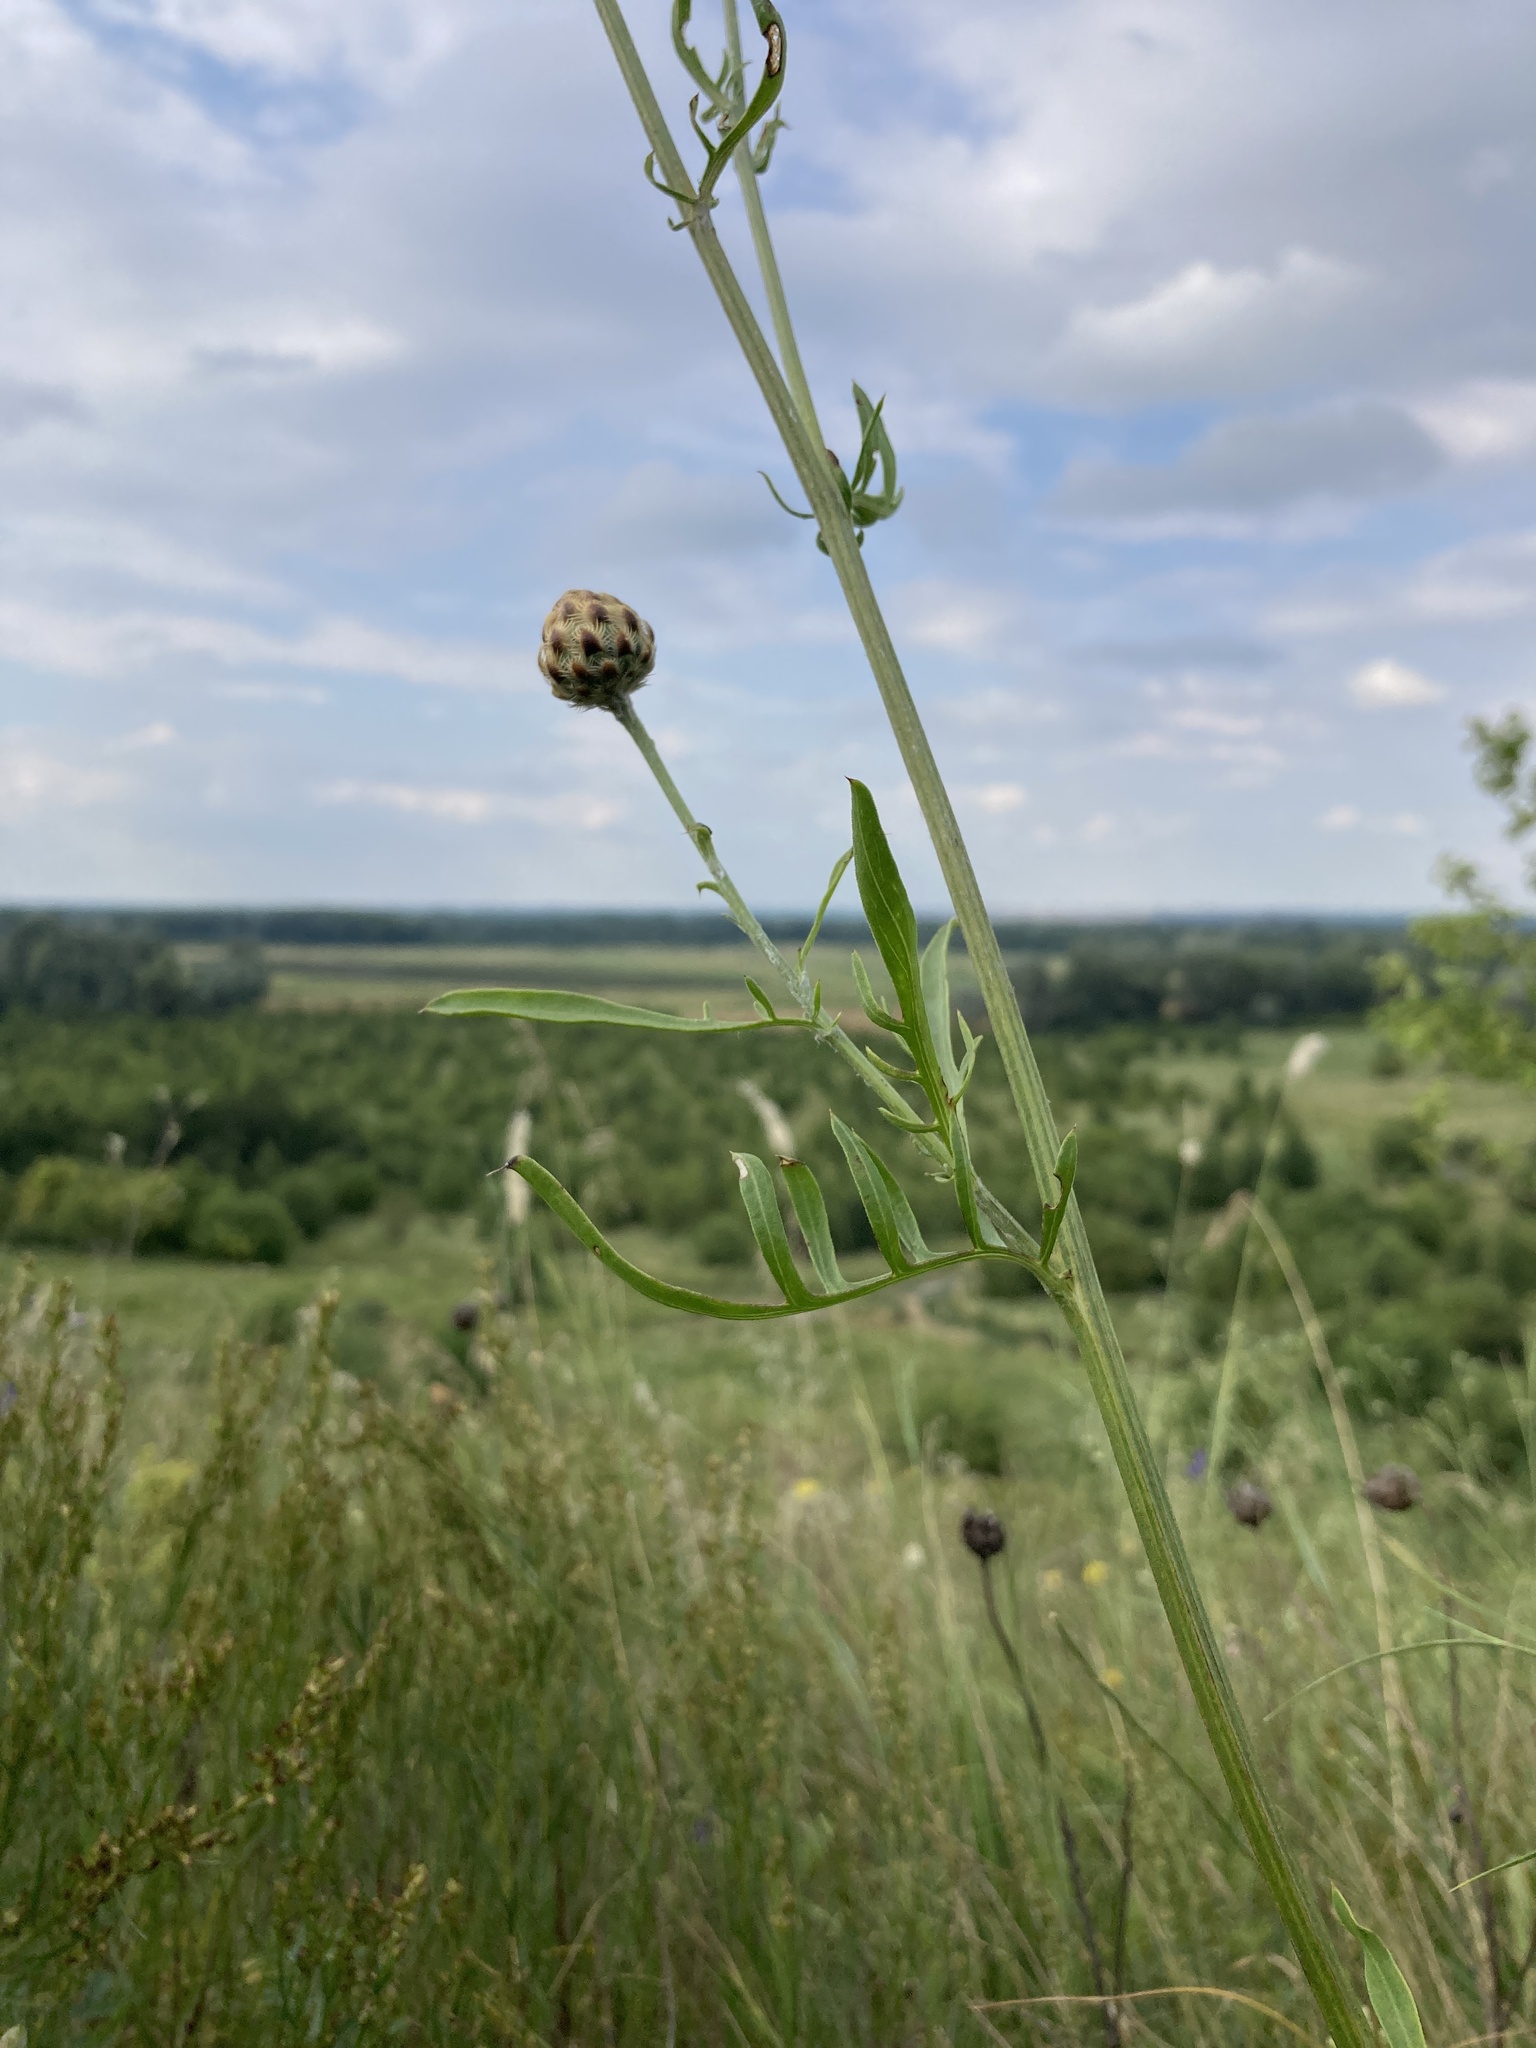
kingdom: Plantae
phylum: Tracheophyta
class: Magnoliopsida
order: Asterales
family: Asteraceae
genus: Centaurea
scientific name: Centaurea orientalis
